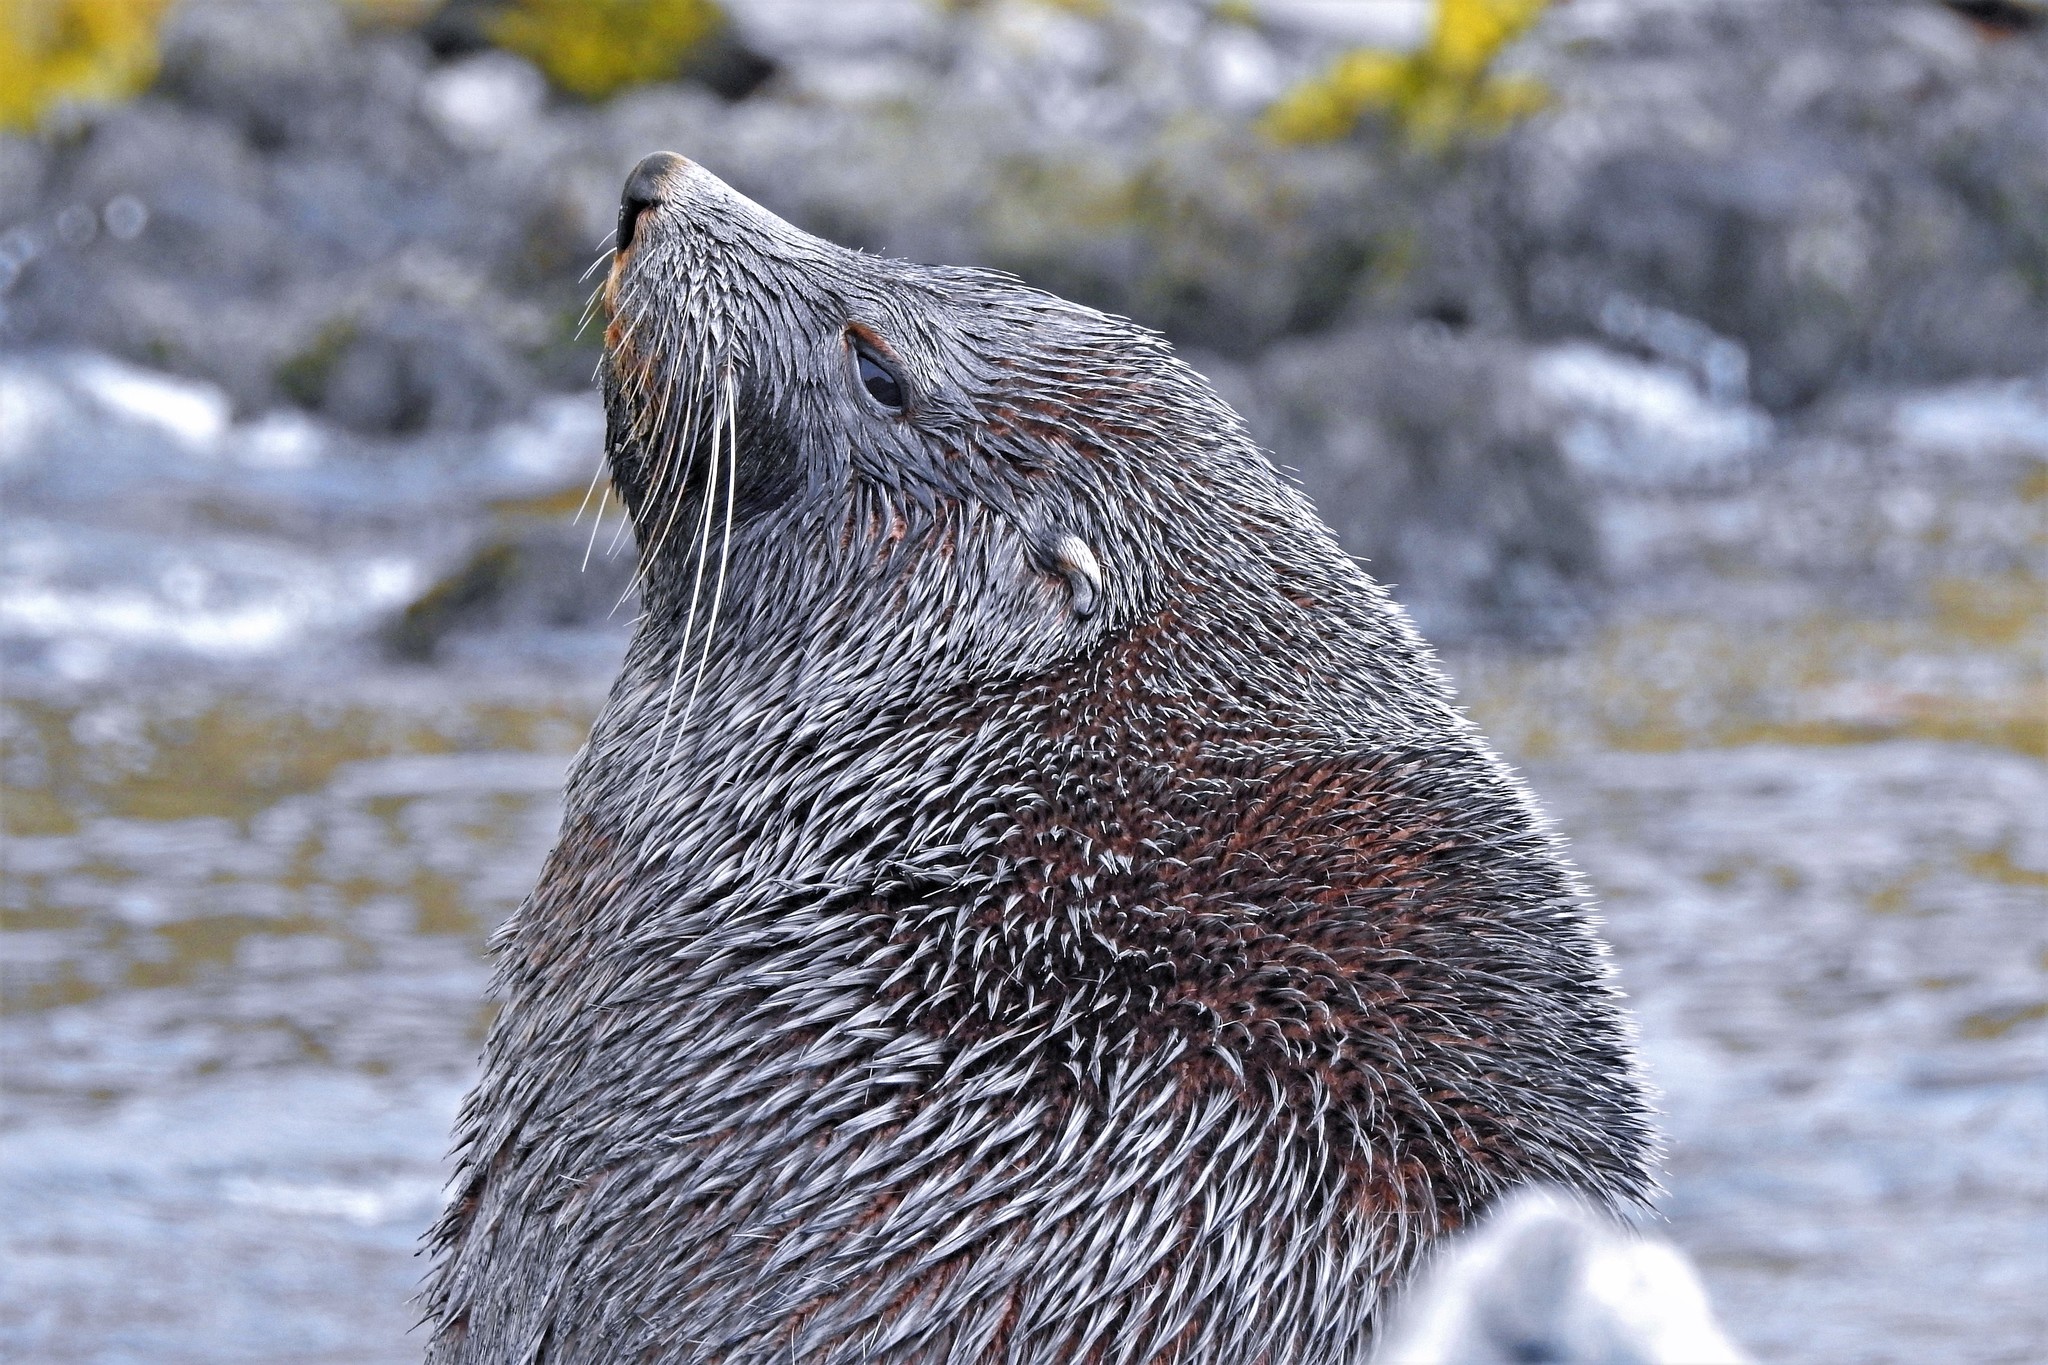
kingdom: Animalia
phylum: Chordata
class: Mammalia
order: Carnivora
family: Otariidae
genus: Arctocephalus
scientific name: Arctocephalus gazella
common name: Antarctic fur seal
